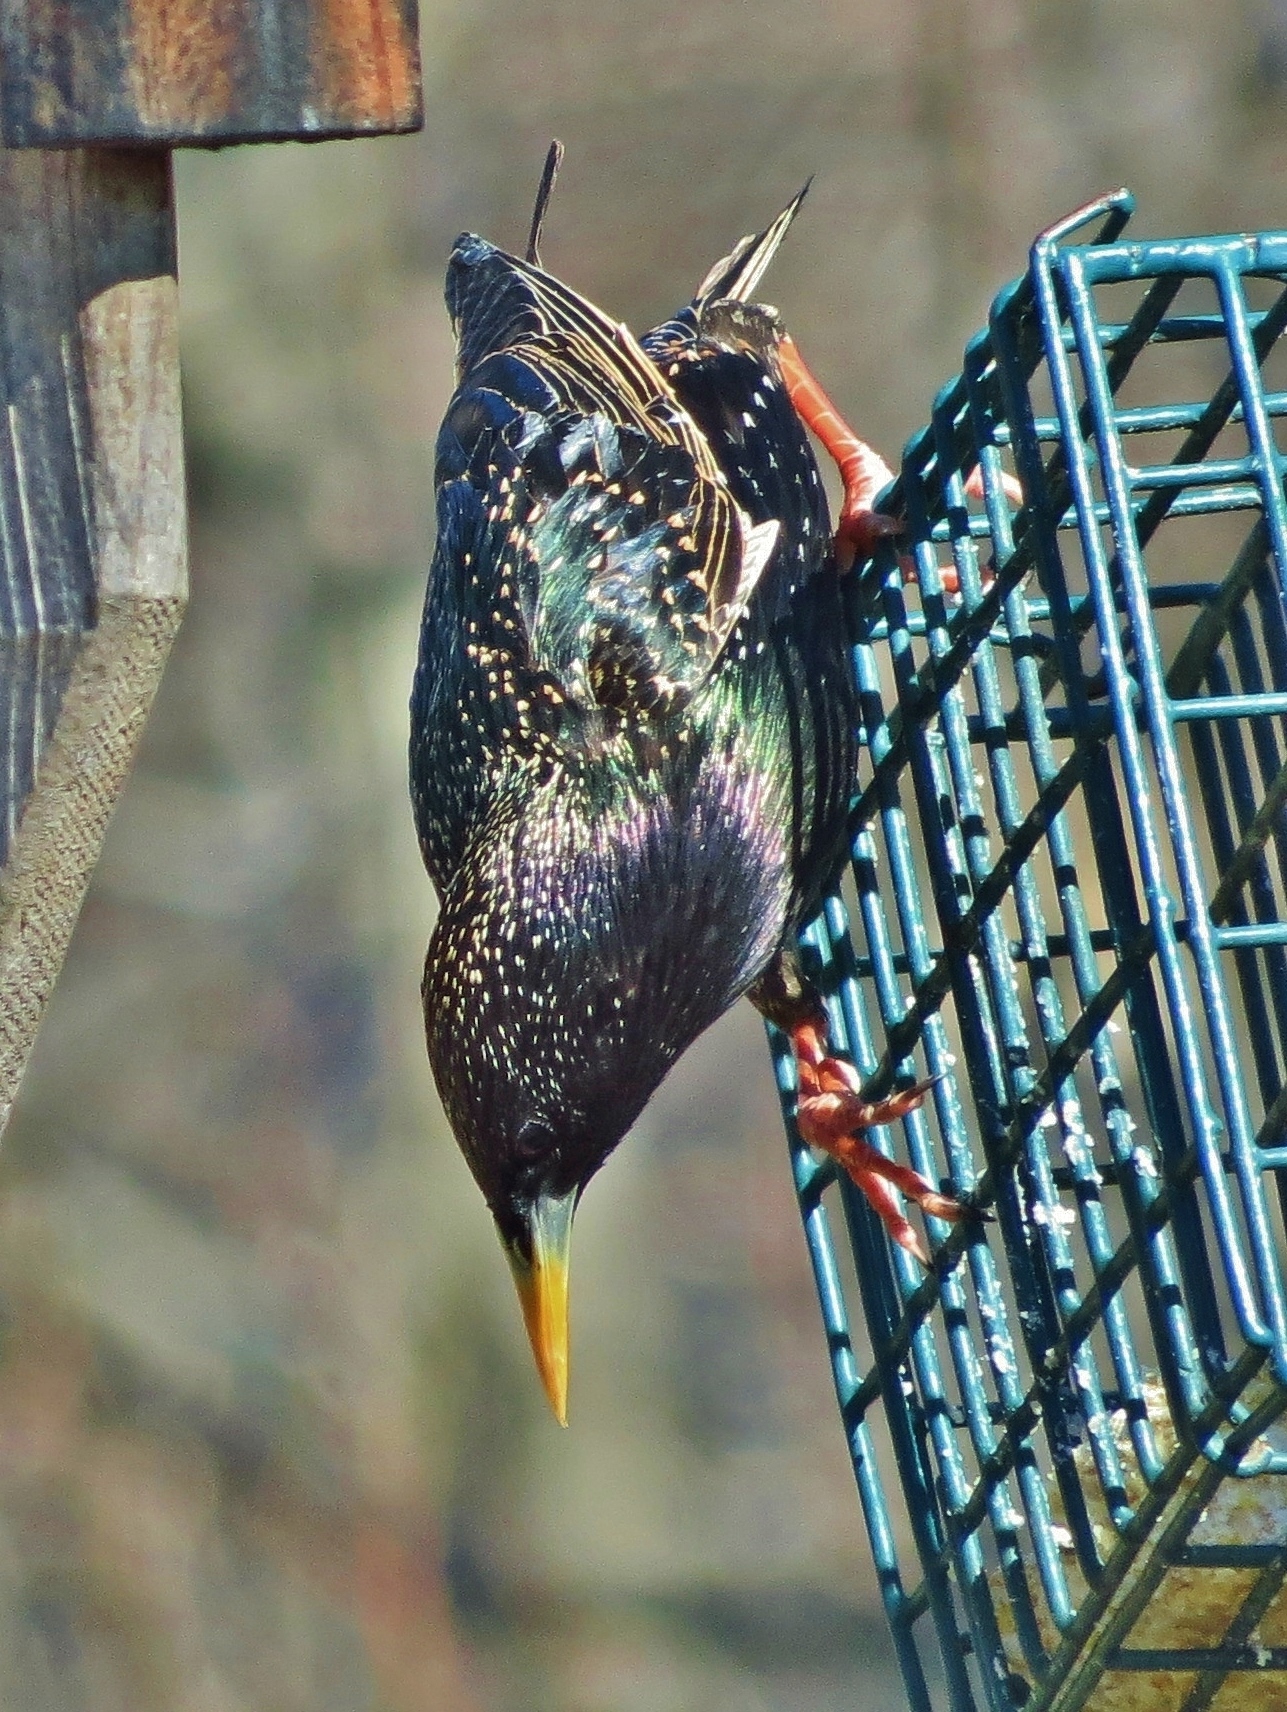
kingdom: Animalia
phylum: Chordata
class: Aves
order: Passeriformes
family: Sturnidae
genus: Sturnus
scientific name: Sturnus vulgaris
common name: Common starling
